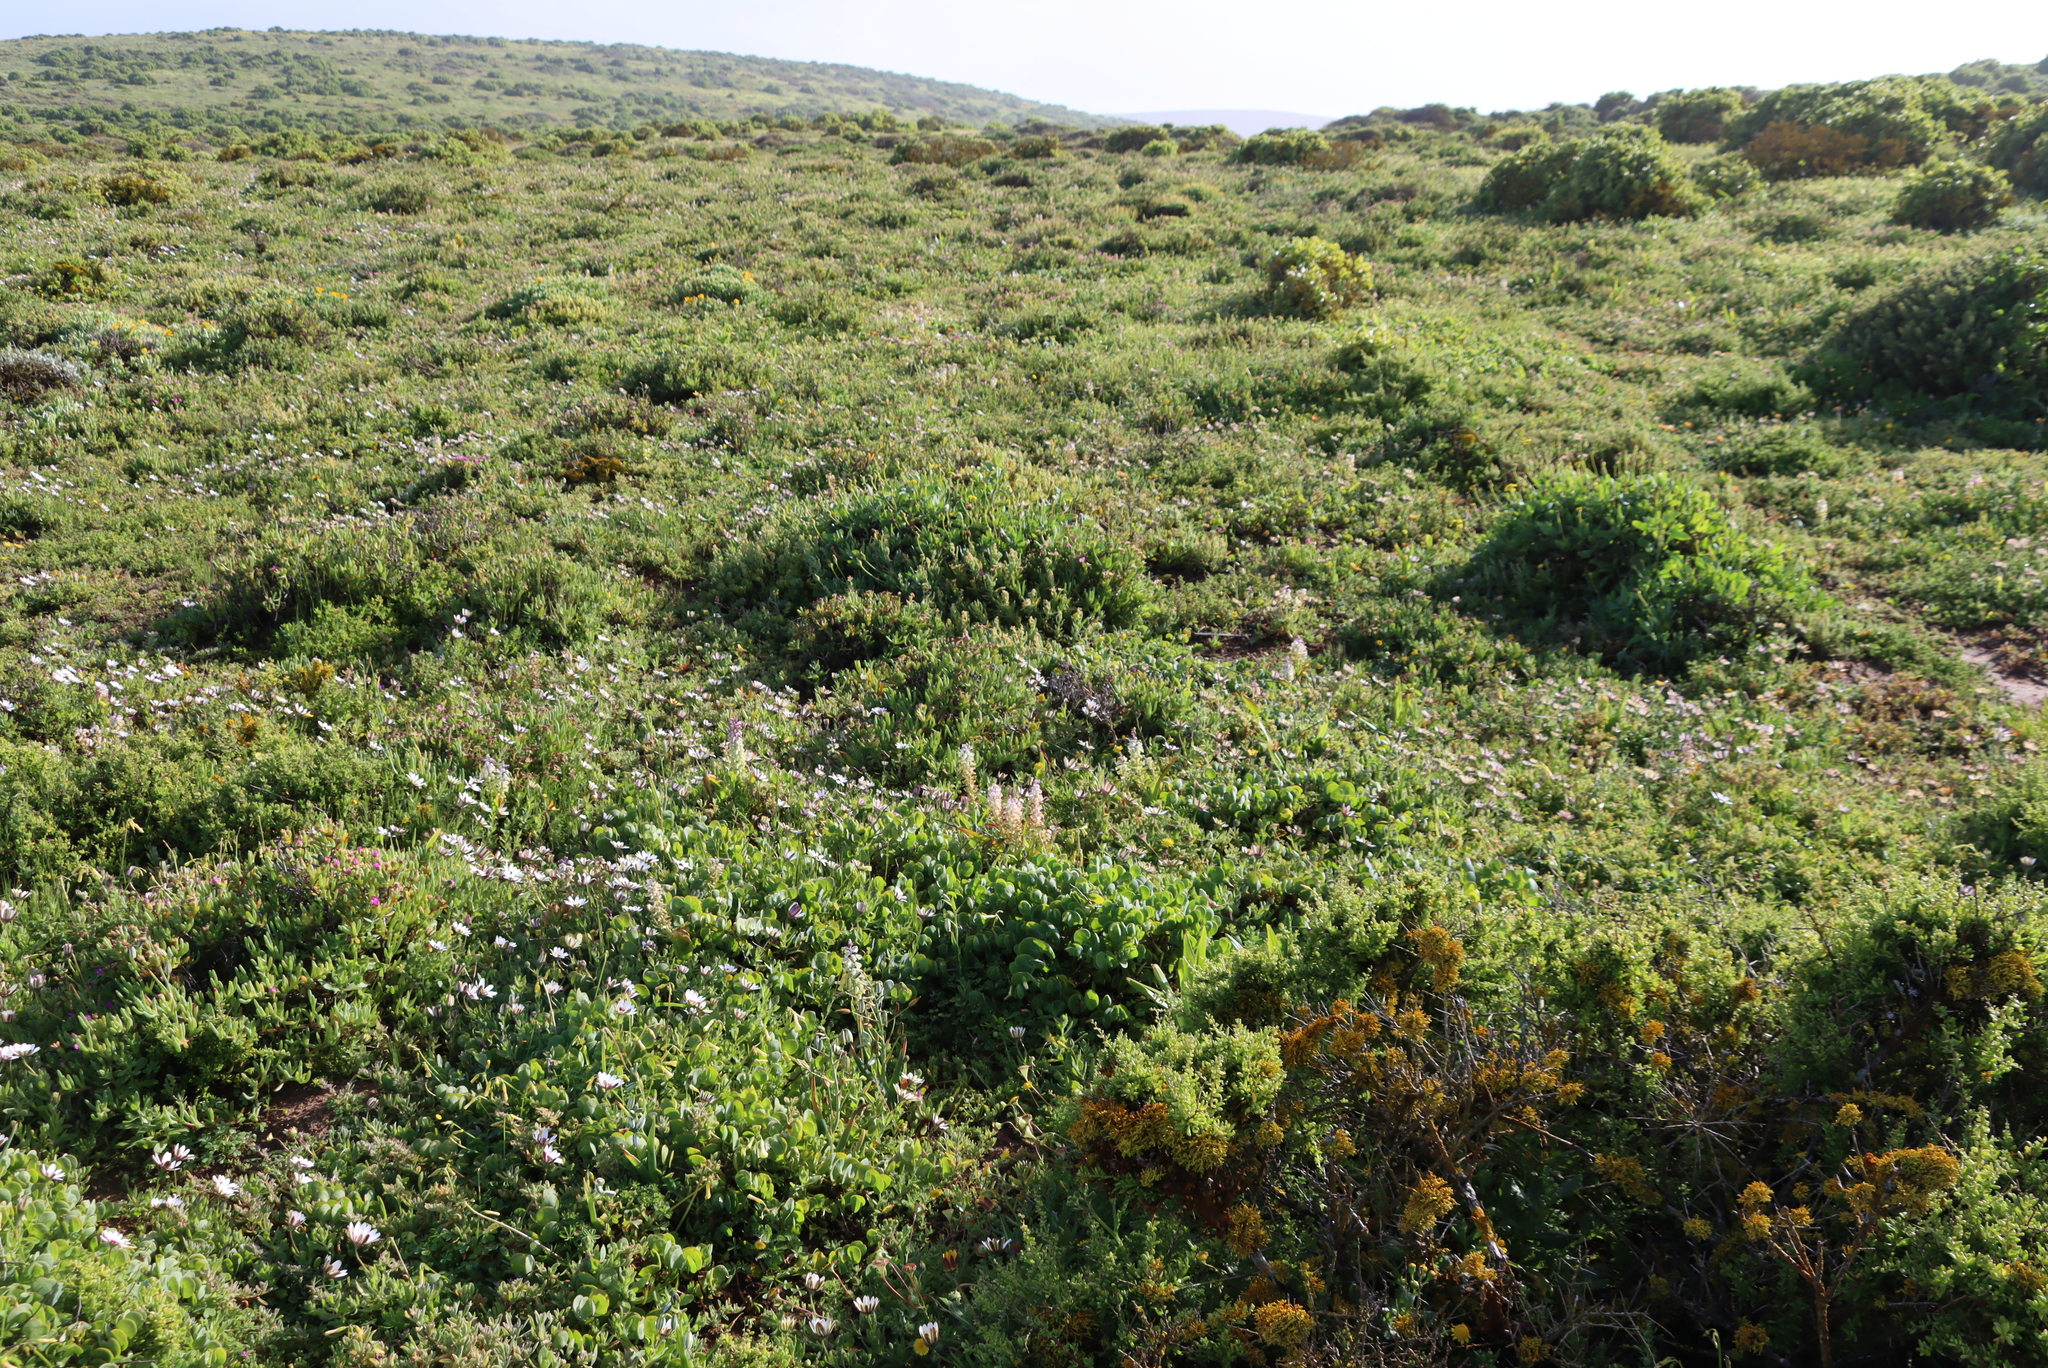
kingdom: Plantae
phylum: Tracheophyta
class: Liliopsida
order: Asparagales
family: Asparagaceae
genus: Lachenalia
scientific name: Lachenalia pallida
